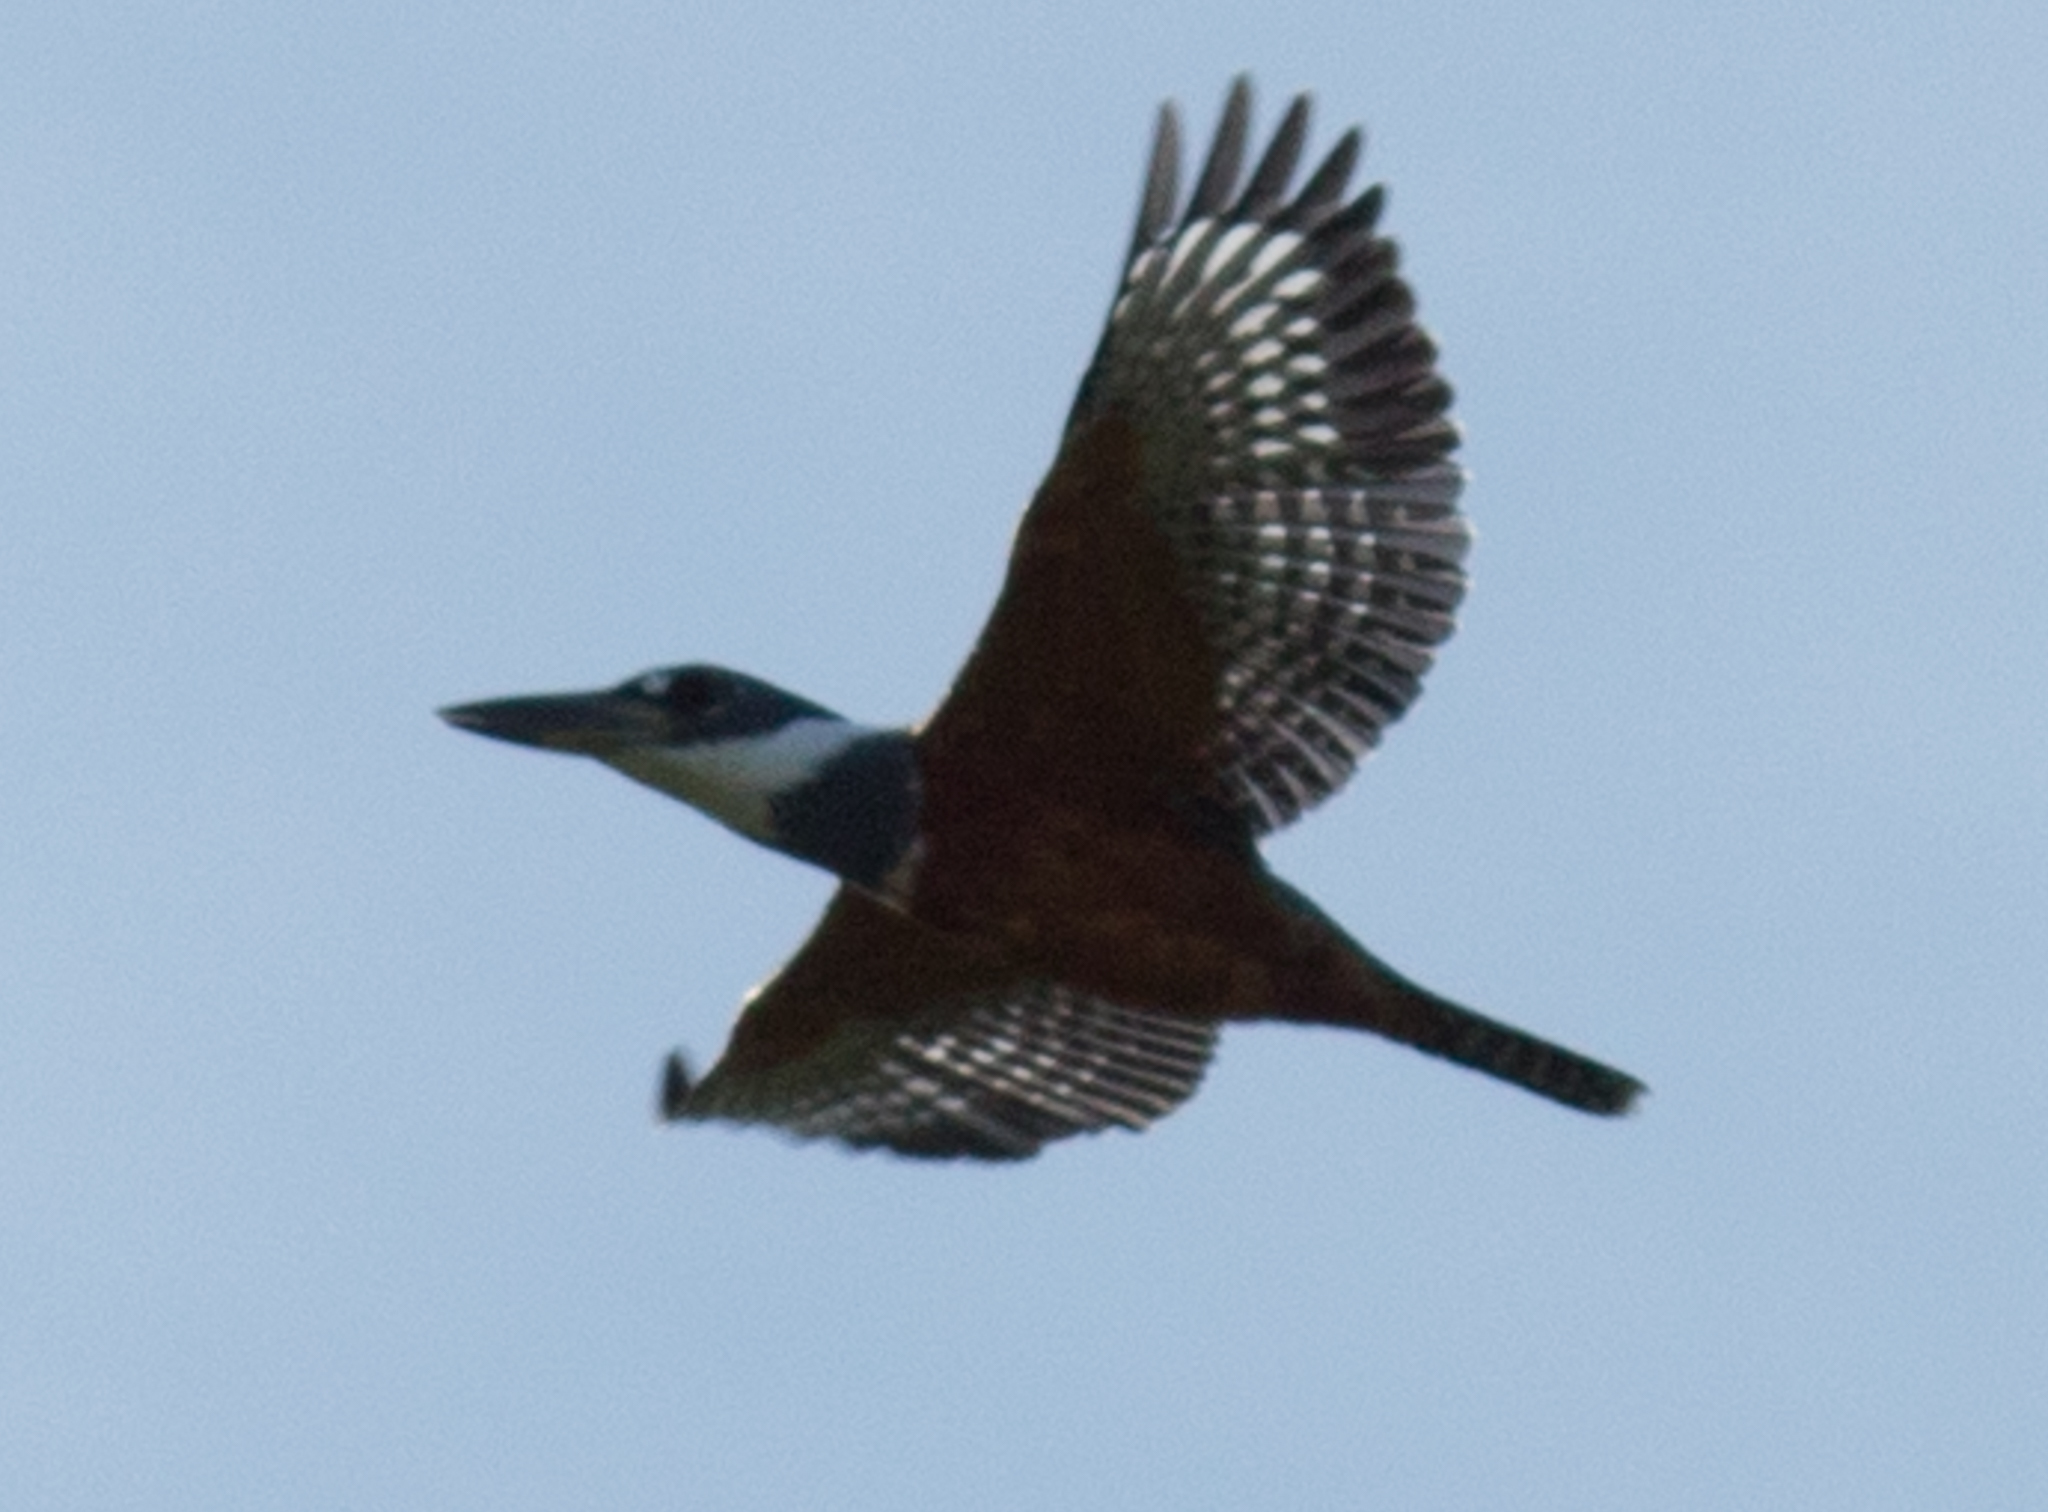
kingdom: Animalia
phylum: Chordata
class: Aves
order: Coraciiformes
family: Alcedinidae
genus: Megaceryle
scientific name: Megaceryle torquata
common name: Ringed kingfisher
